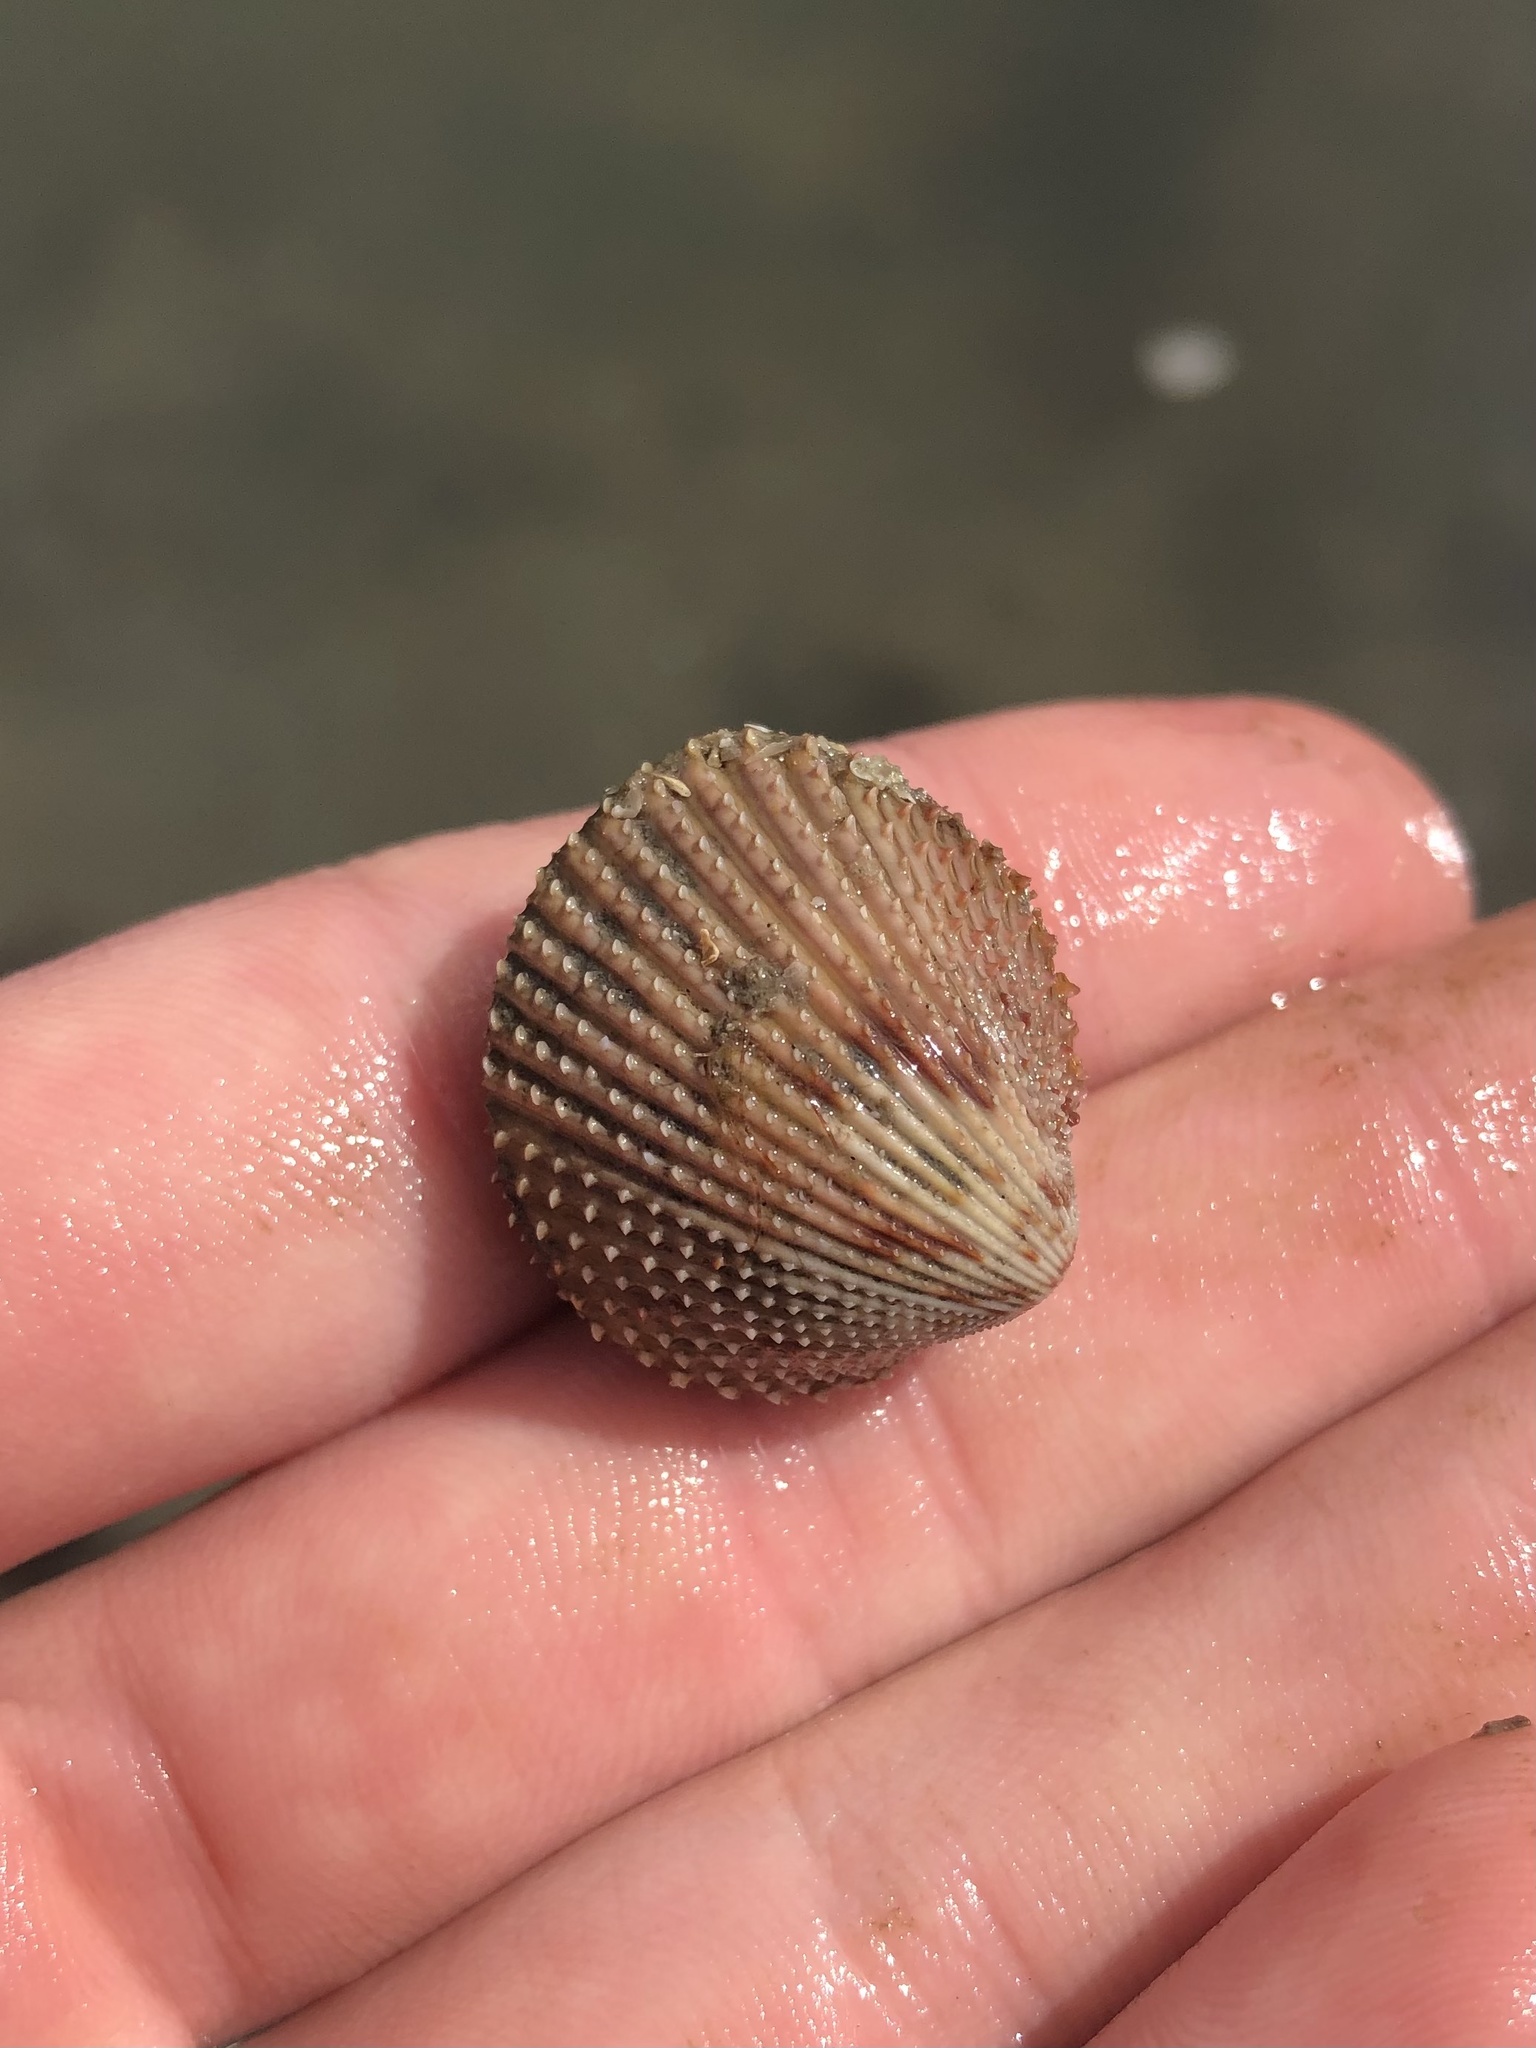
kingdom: Animalia
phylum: Mollusca
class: Bivalvia
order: Cardiida
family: Cardiidae
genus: Dallocardia
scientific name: Dallocardia muricata
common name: Yellow pricklycockle
